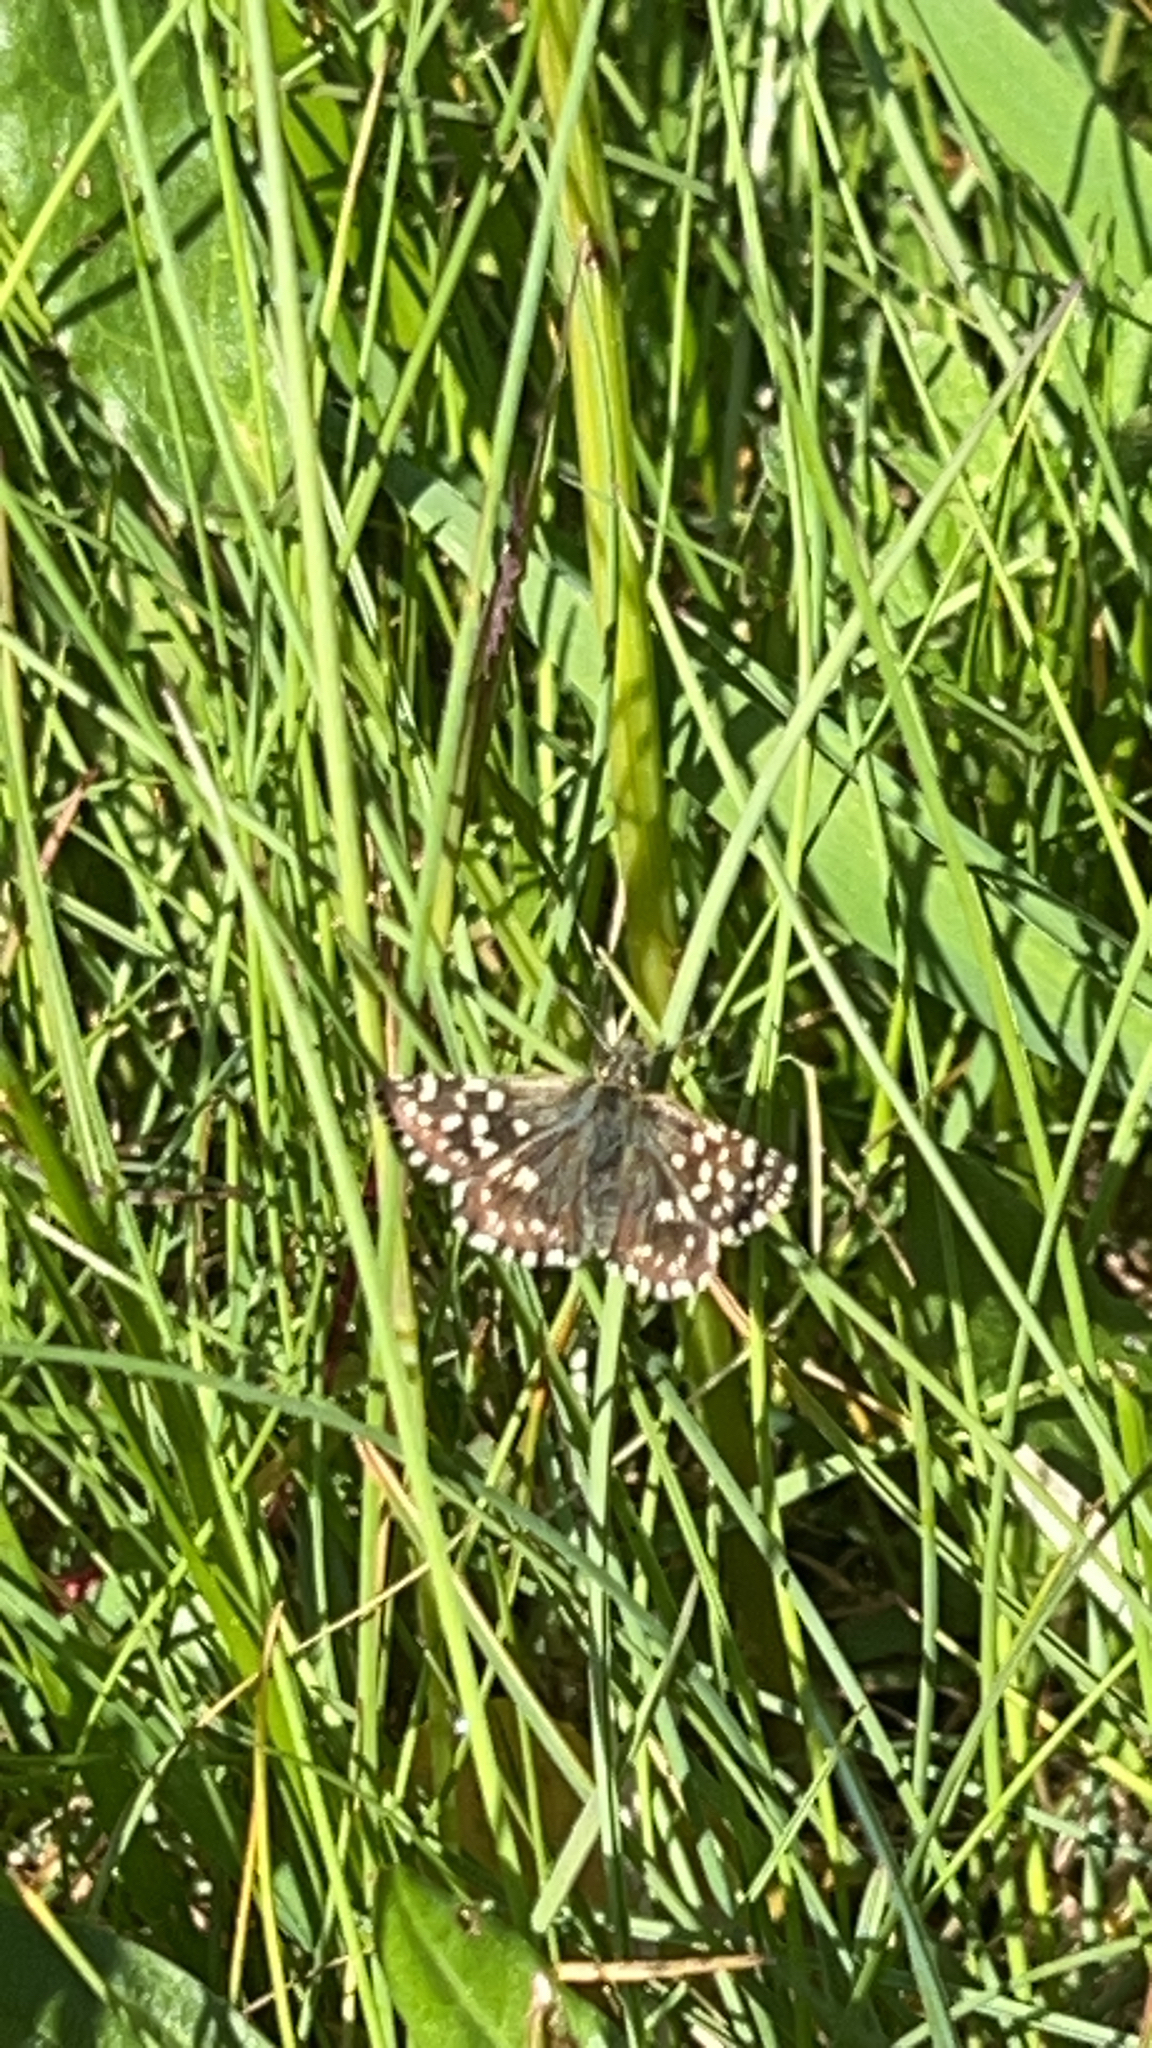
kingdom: Animalia
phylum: Arthropoda
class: Insecta
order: Lepidoptera
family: Hesperiidae
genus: Pyrgus
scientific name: Pyrgus malvae
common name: Grizzled skipper
